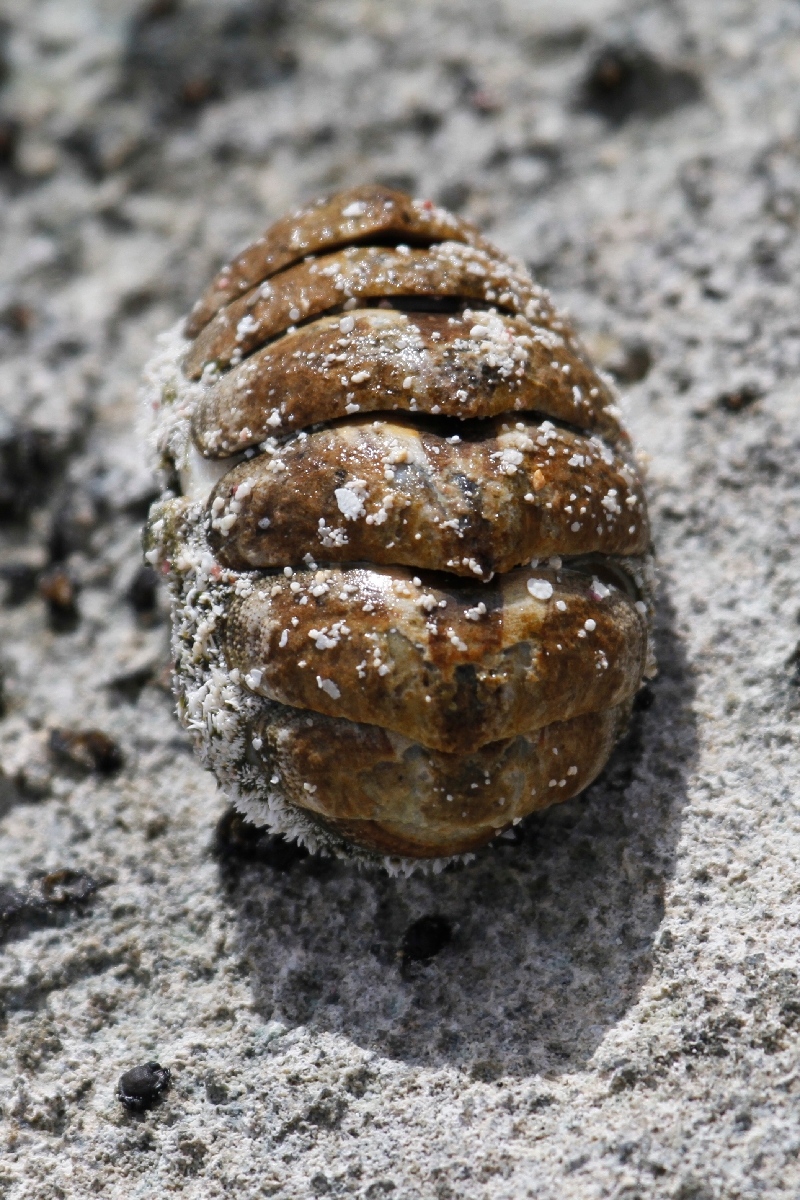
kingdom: Animalia
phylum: Mollusca
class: Polyplacophora
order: Chitonida
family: Chitonidae
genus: Acanthopleura
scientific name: Acanthopleura granulata
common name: West indian fuzzy chiton
